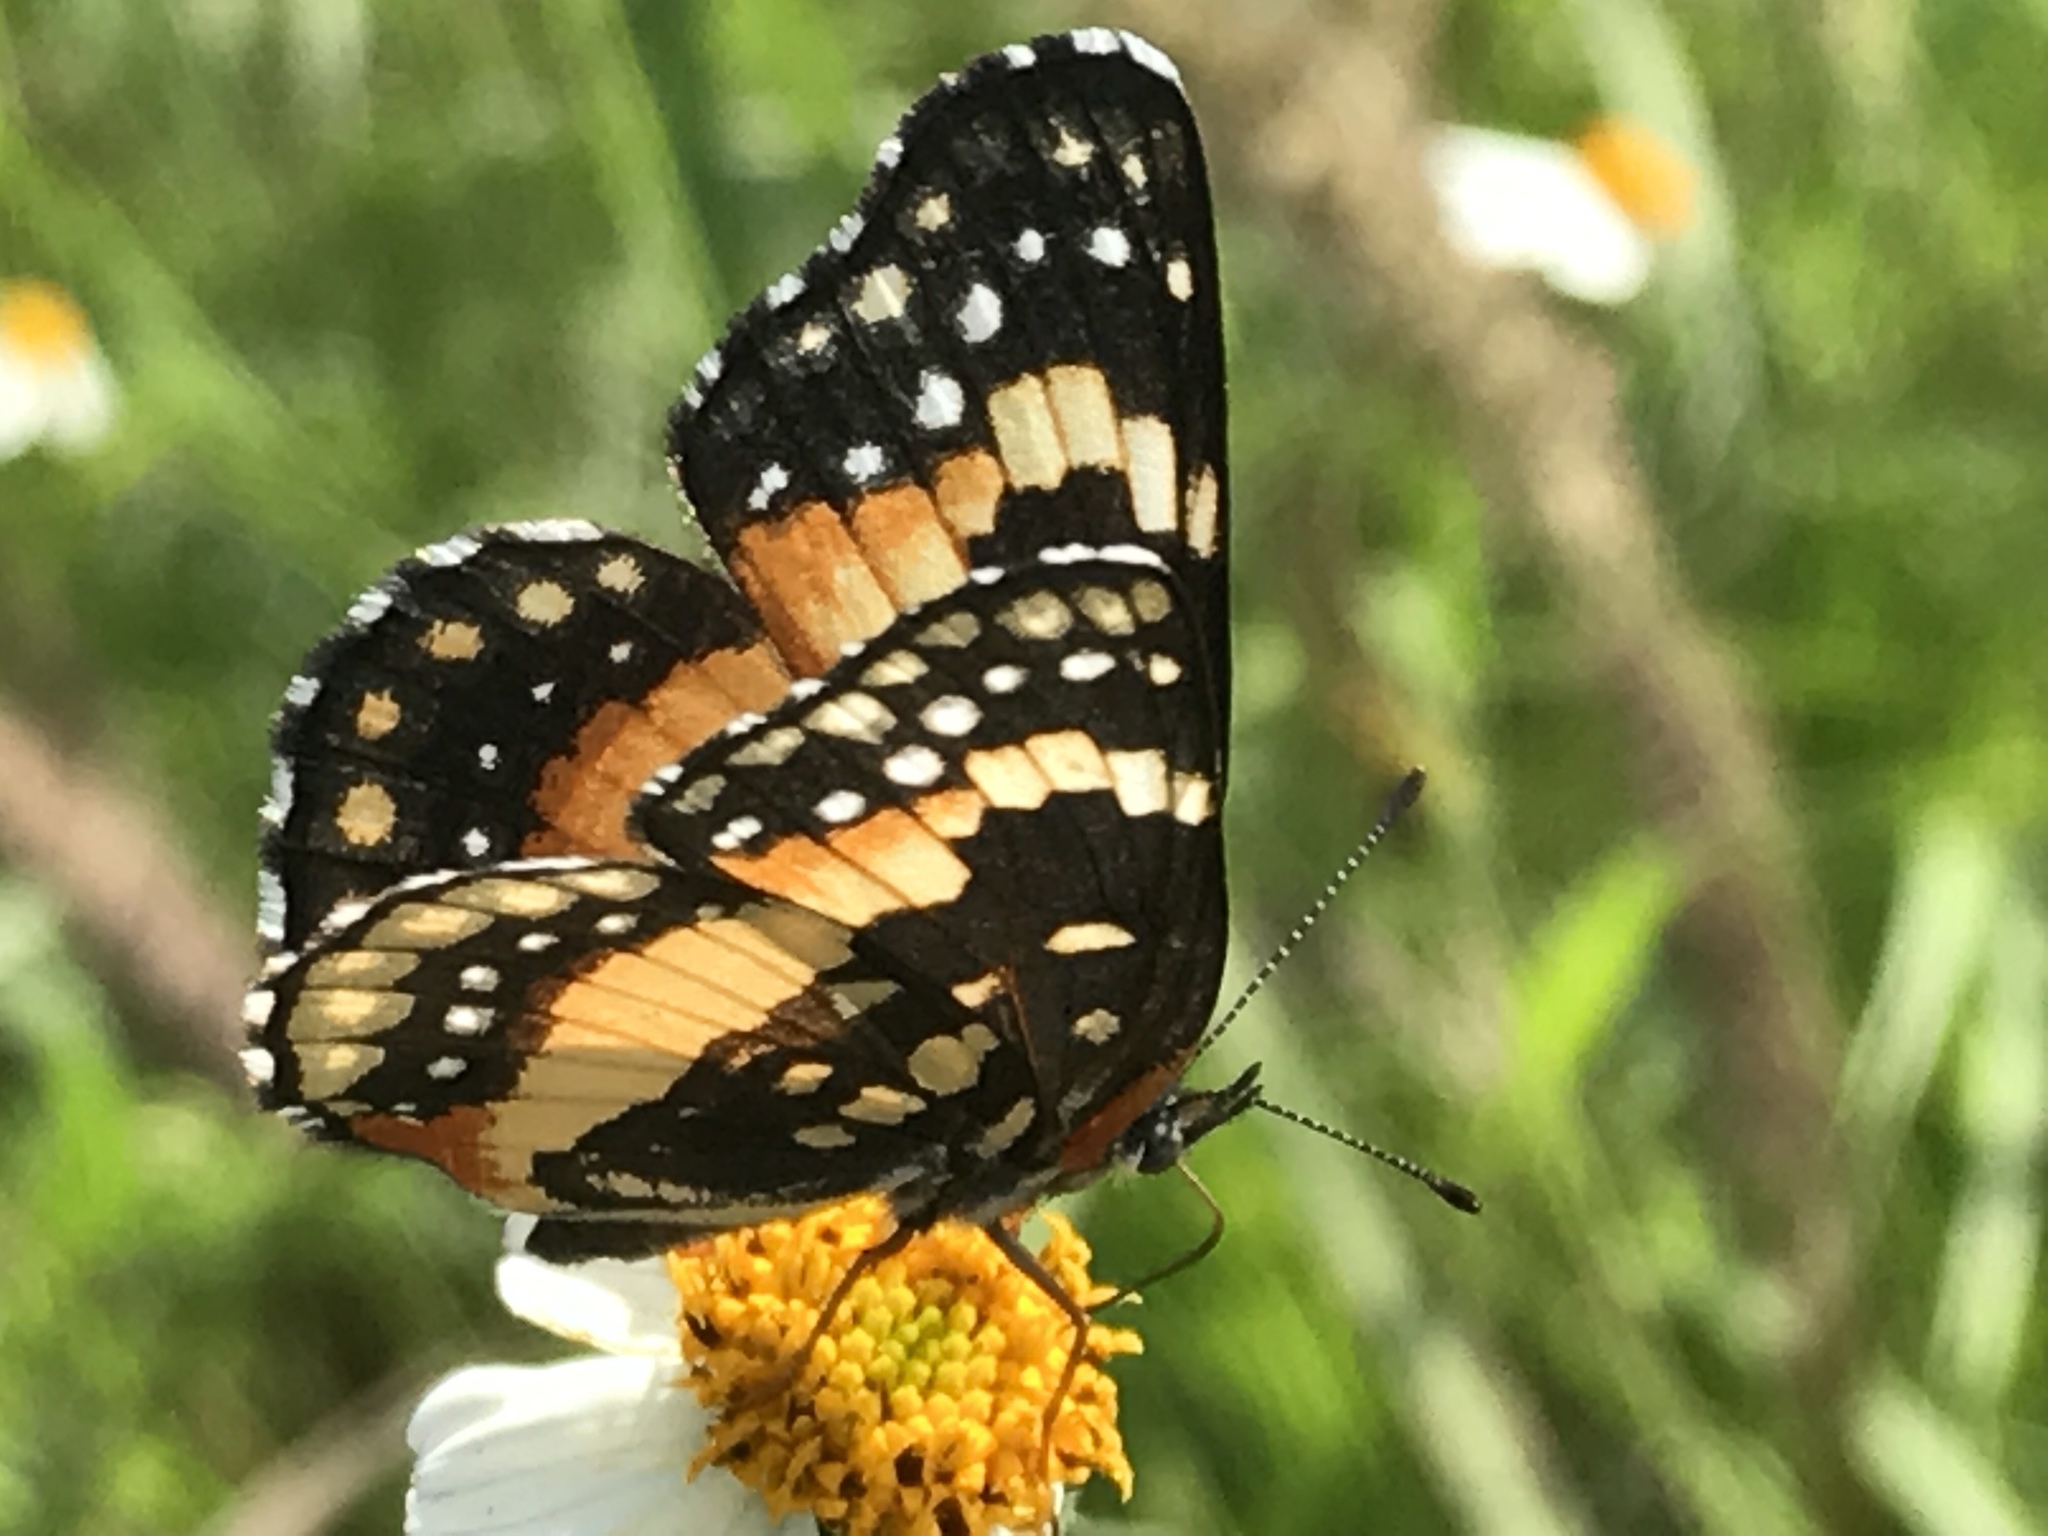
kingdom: Animalia
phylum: Arthropoda
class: Insecta
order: Lepidoptera
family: Nymphalidae
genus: Chlosyne
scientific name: Chlosyne lacinia
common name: Bordered patch
